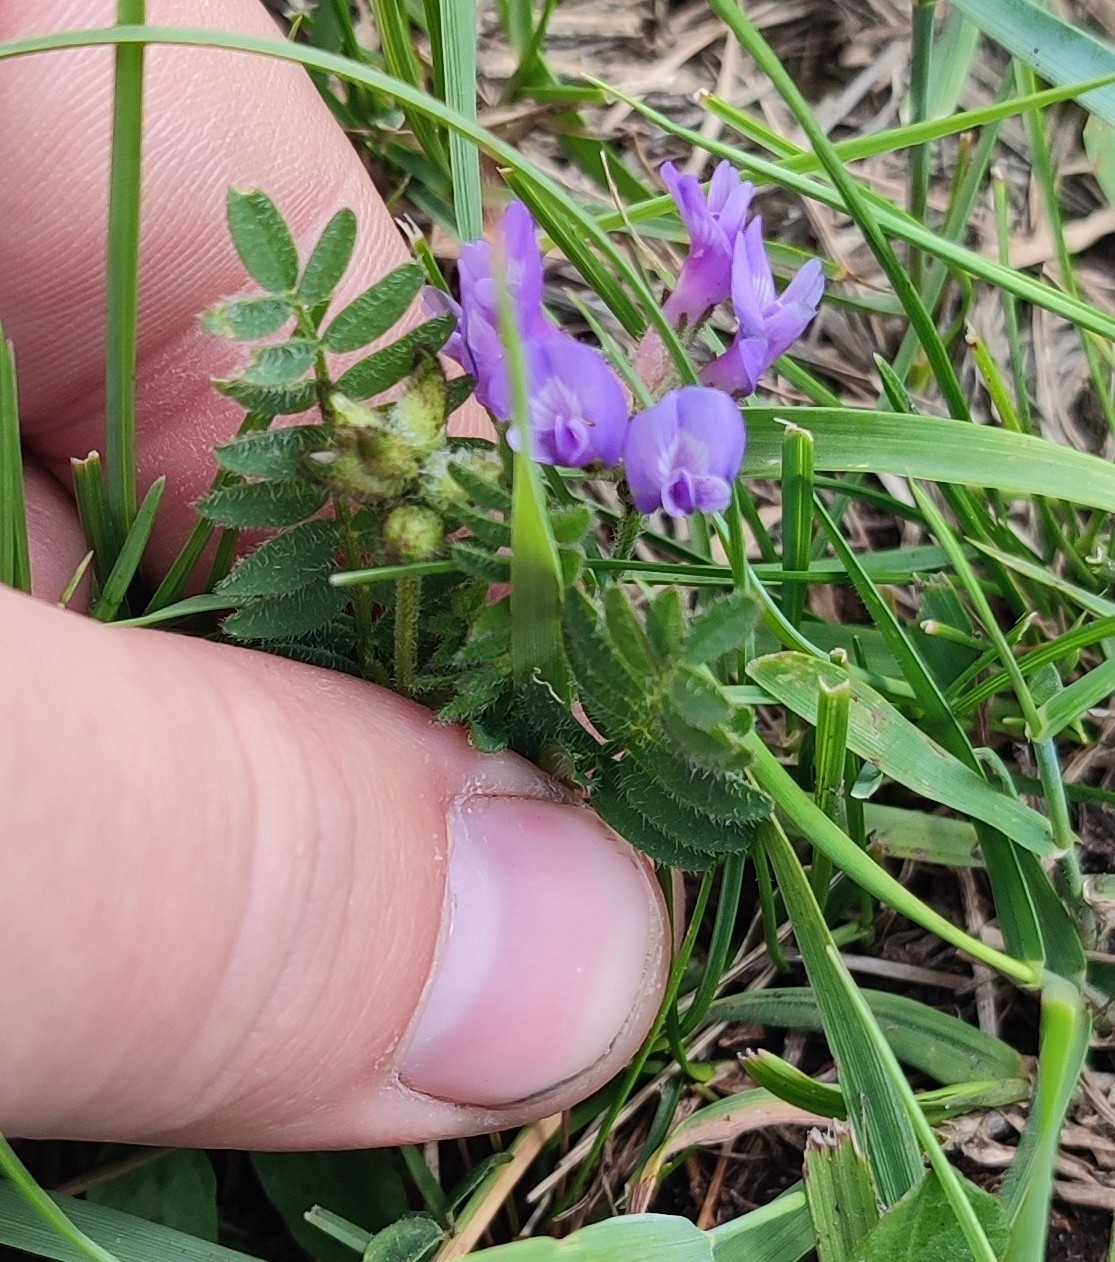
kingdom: Plantae
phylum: Tracheophyta
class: Magnoliopsida
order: Fabales
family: Fabaceae
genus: Astragalus
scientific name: Astragalus danicus
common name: Purple milk-vetch
